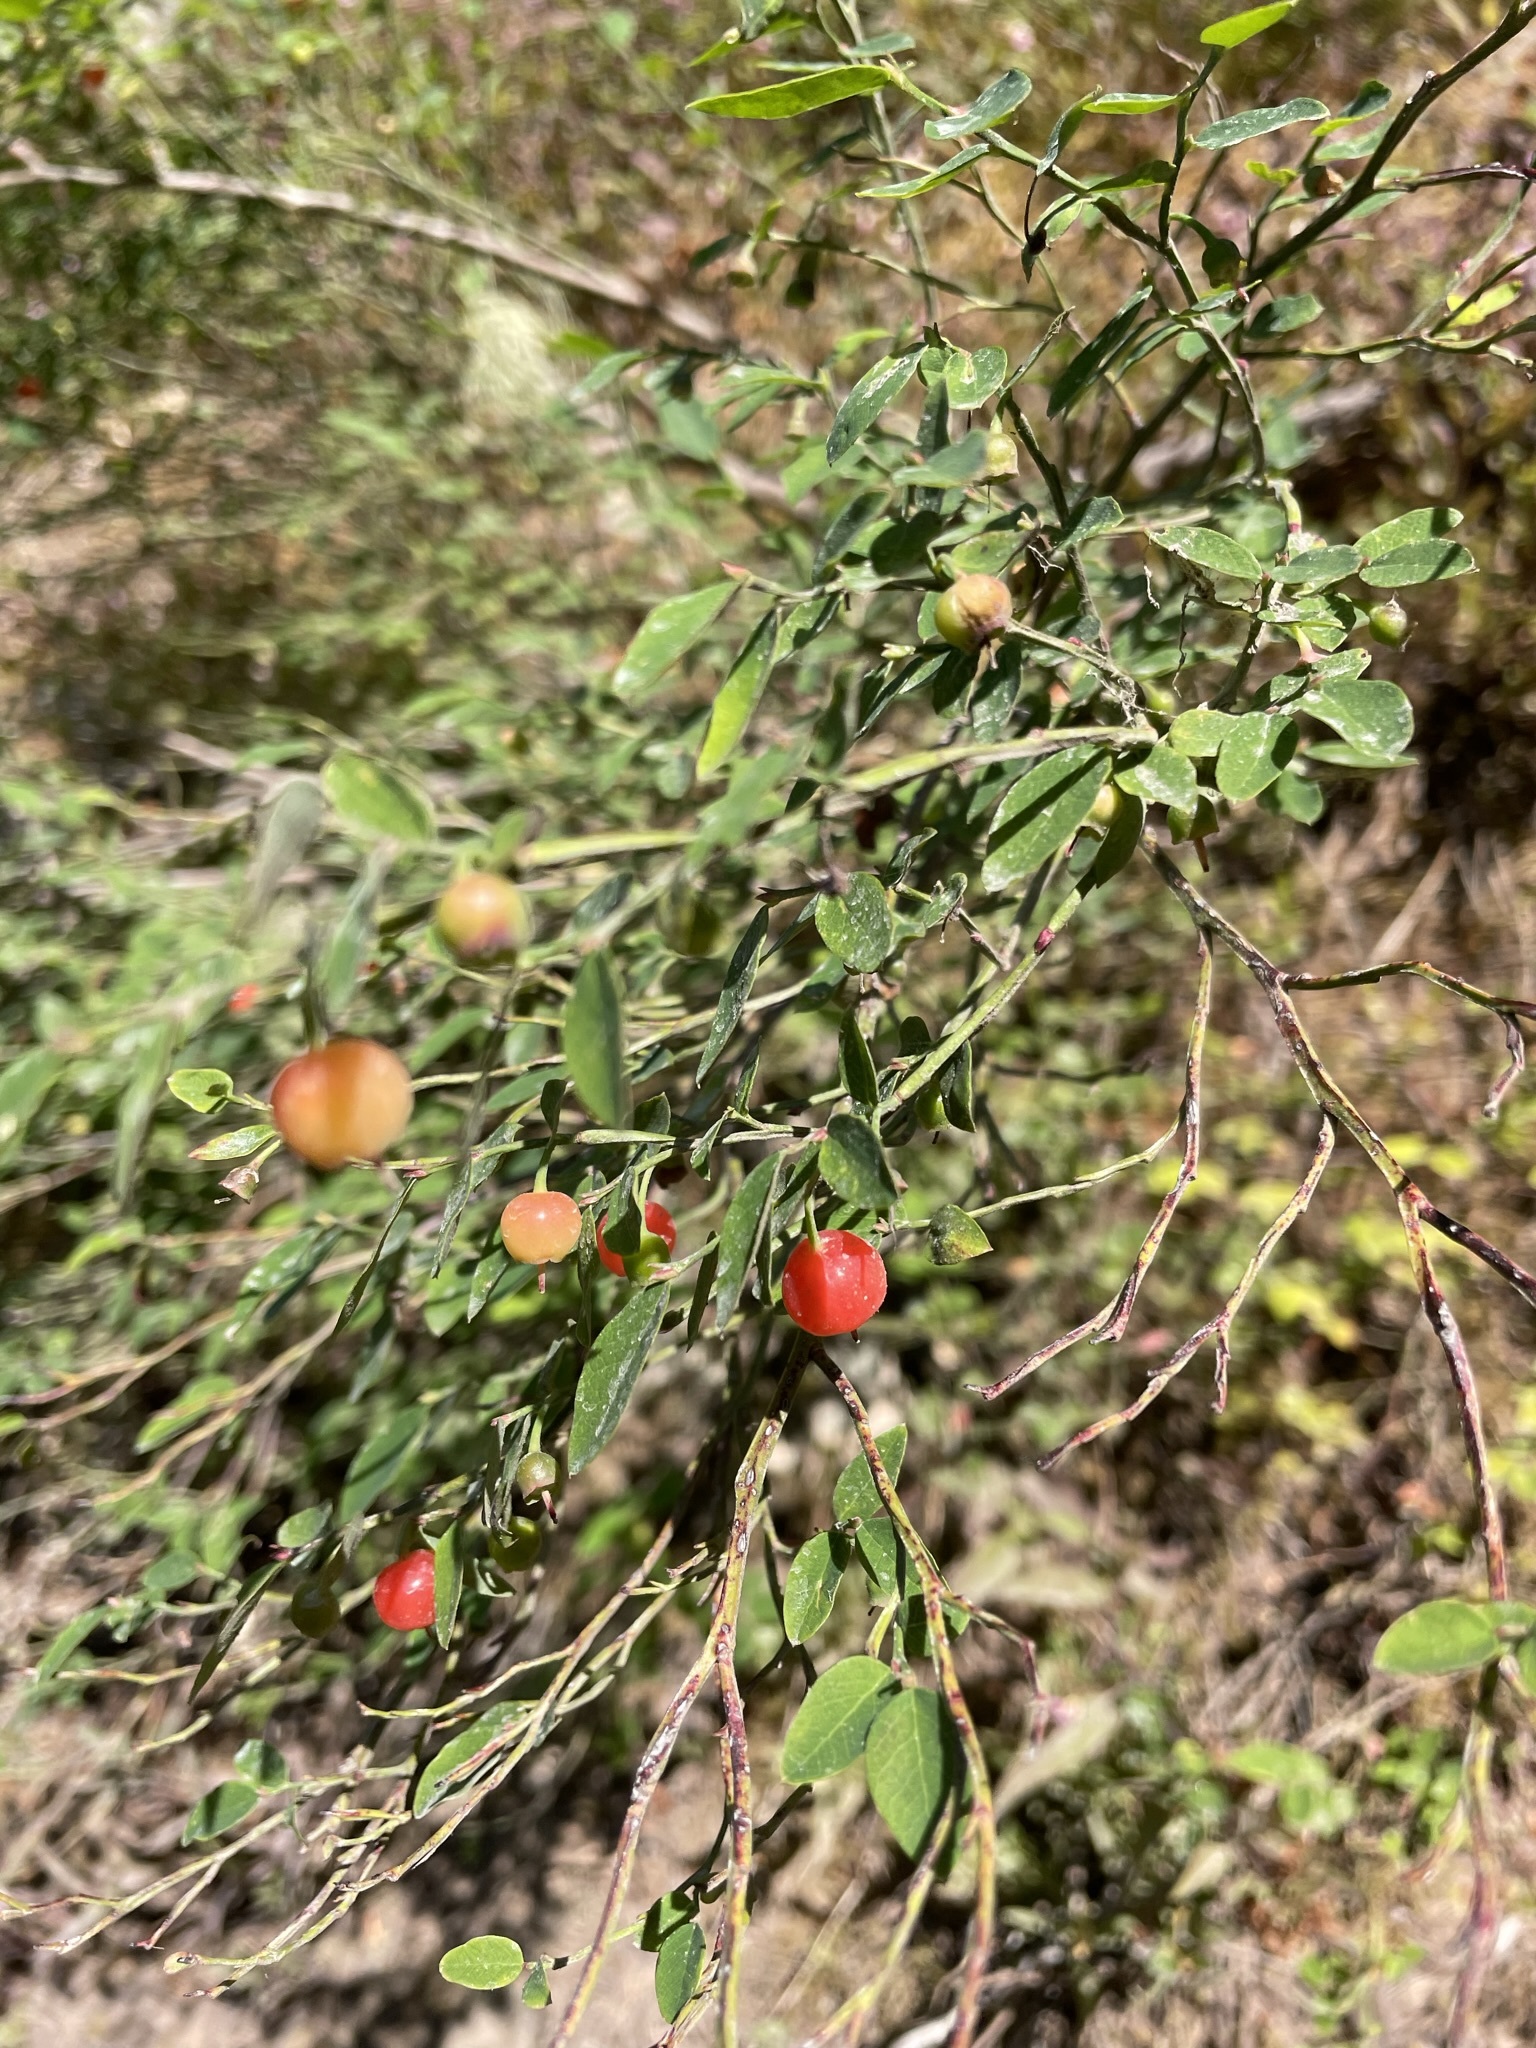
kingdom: Plantae
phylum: Tracheophyta
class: Magnoliopsida
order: Ericales
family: Ericaceae
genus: Vaccinium
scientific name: Vaccinium scoparium
